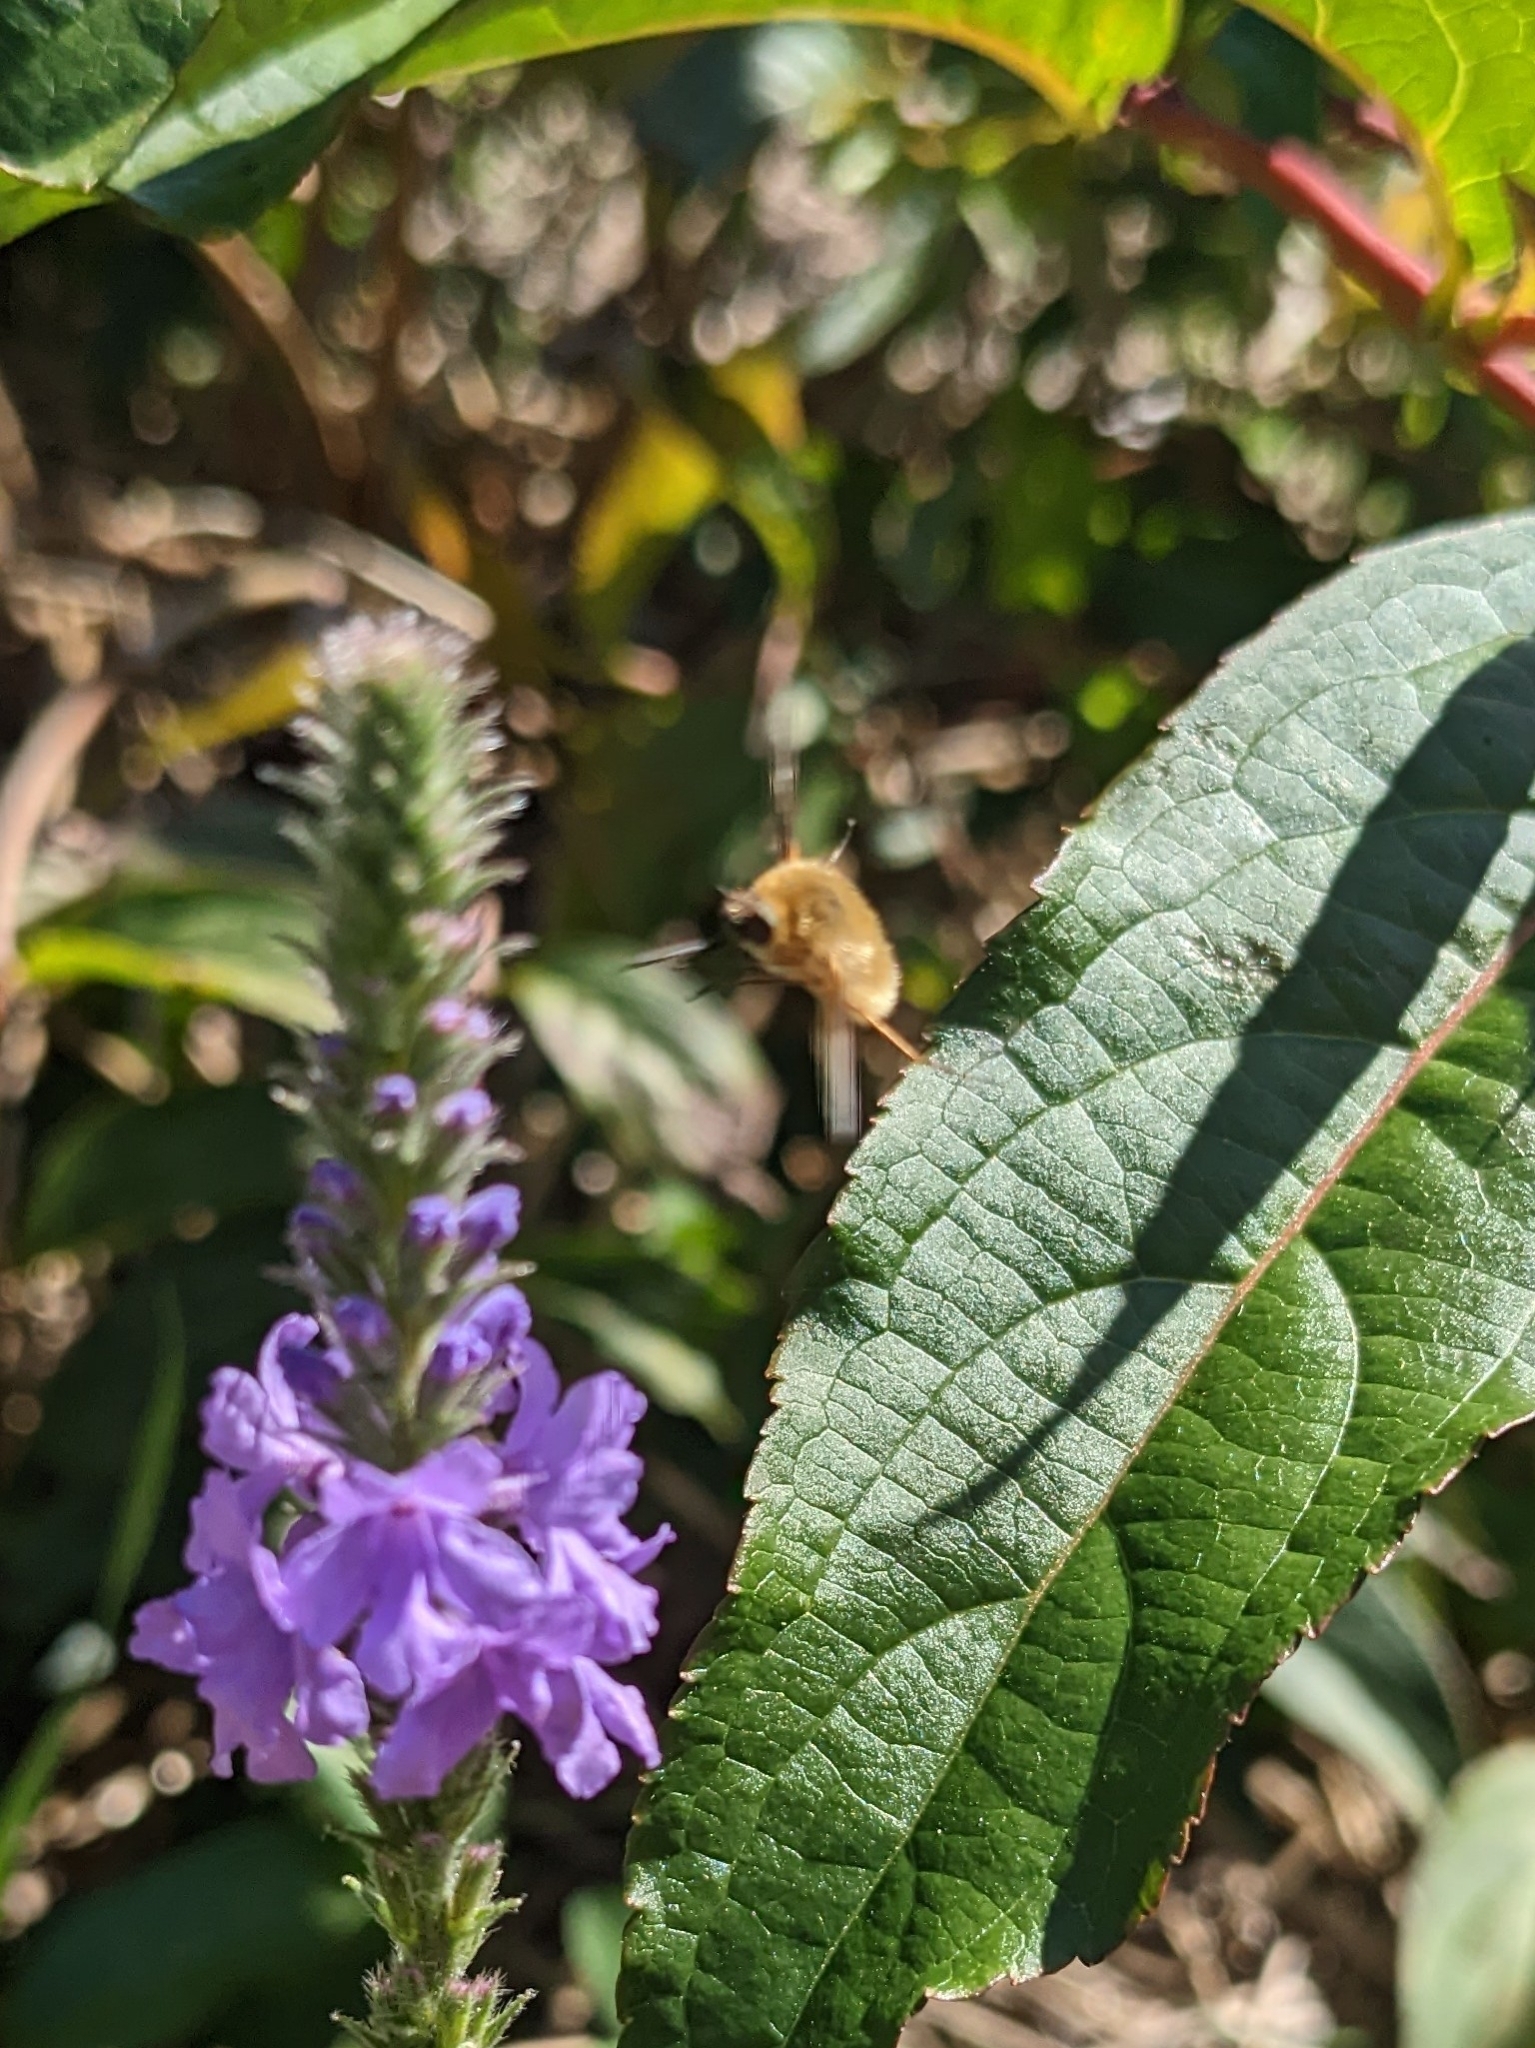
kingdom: Animalia
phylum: Arthropoda
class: Insecta
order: Diptera
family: Bombyliidae
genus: Systoechus
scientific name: Systoechus vulgaris
